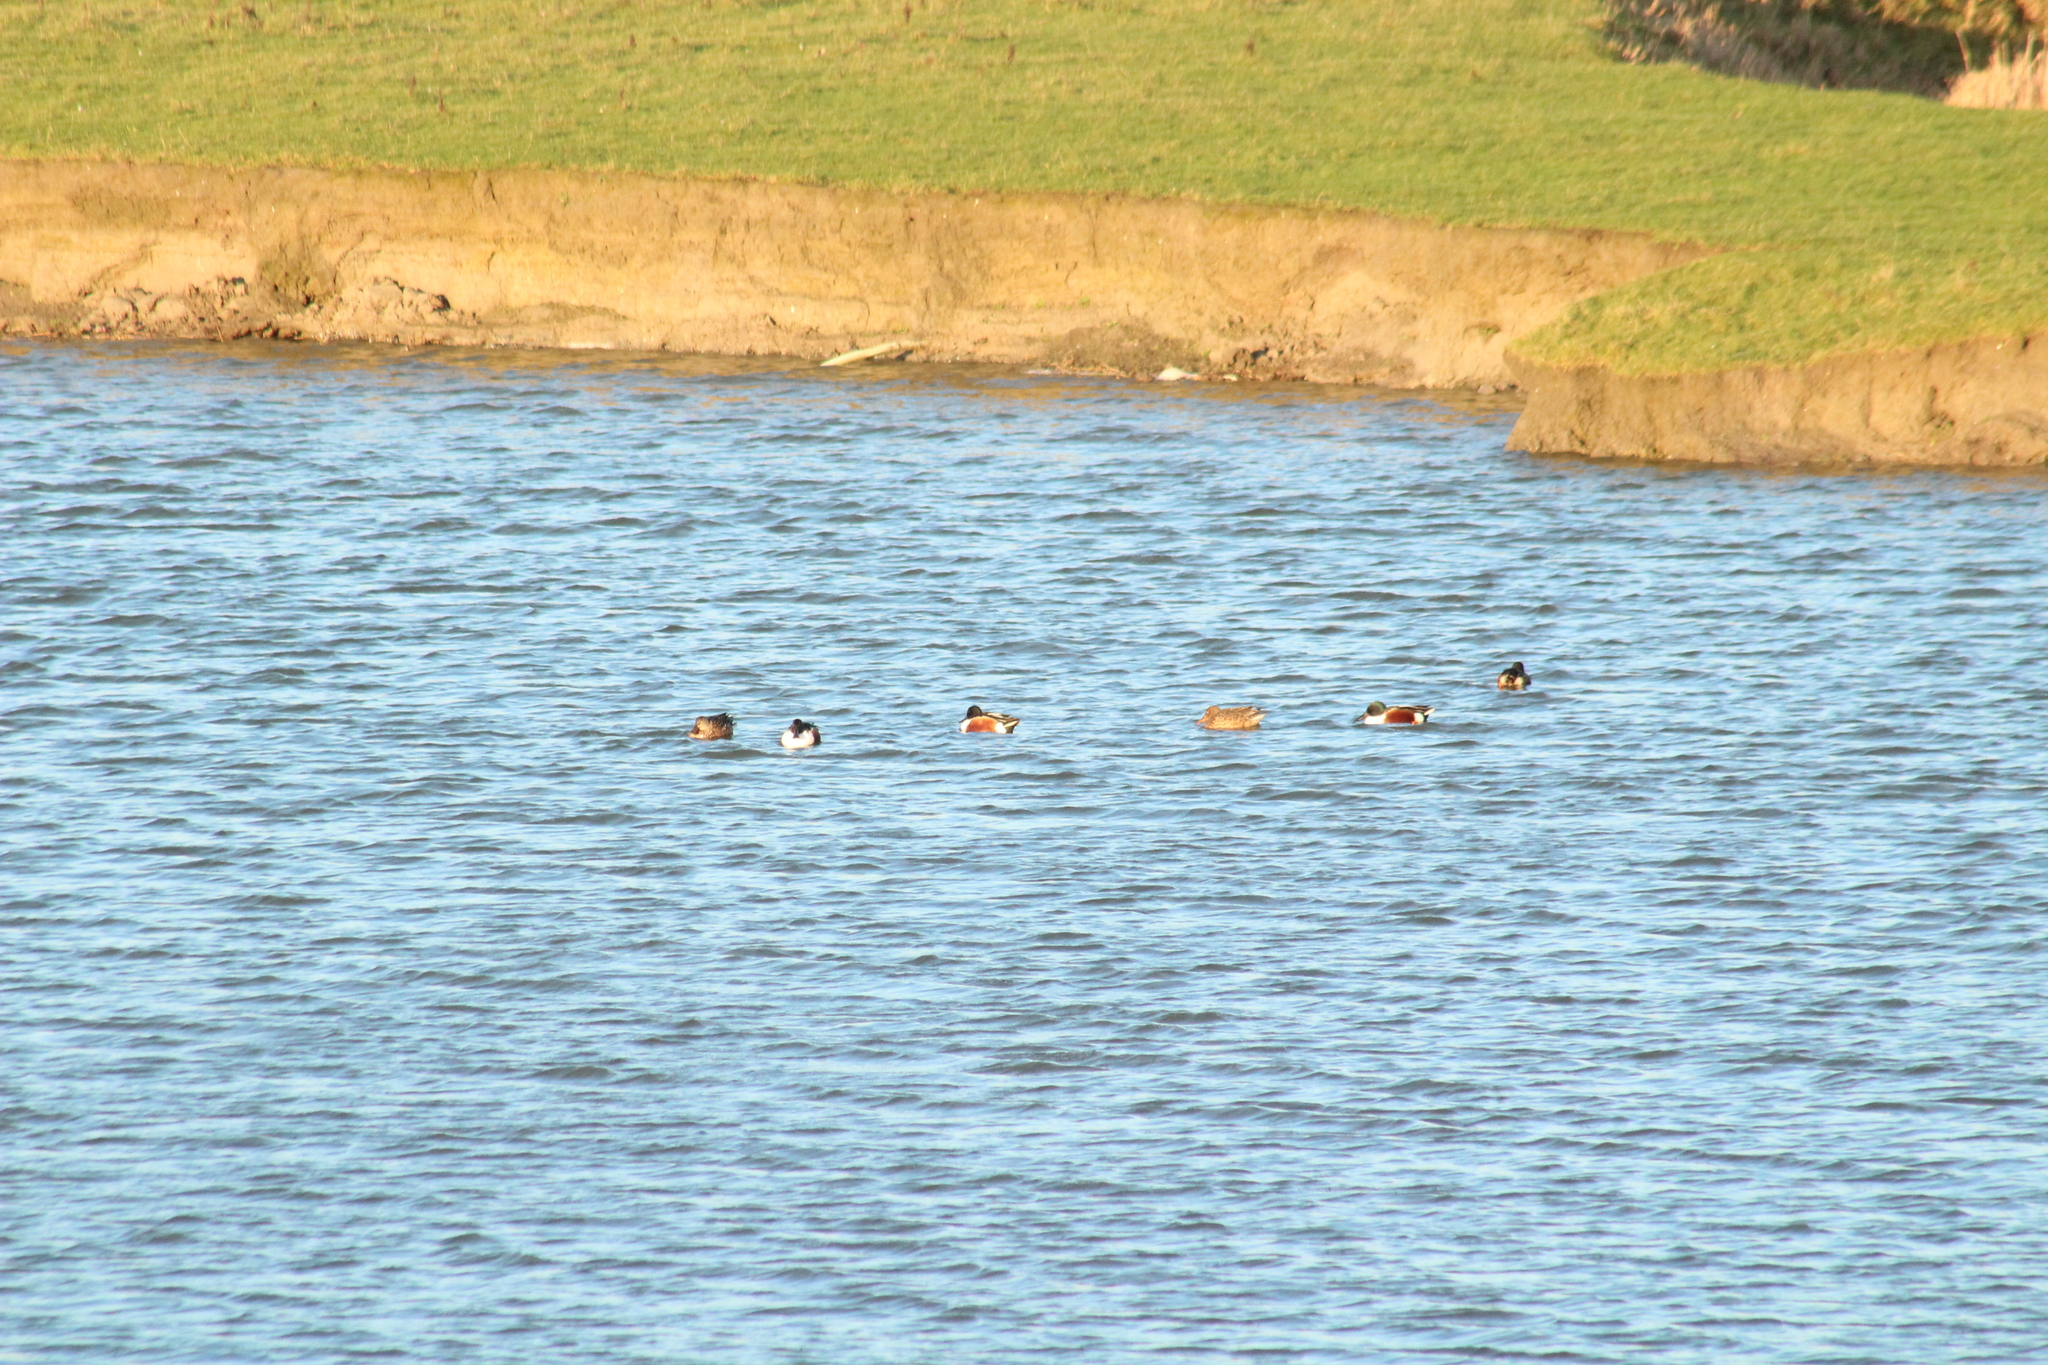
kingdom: Animalia
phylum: Chordata
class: Aves
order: Anseriformes
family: Anatidae
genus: Spatula
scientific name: Spatula clypeata
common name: Northern shoveler
